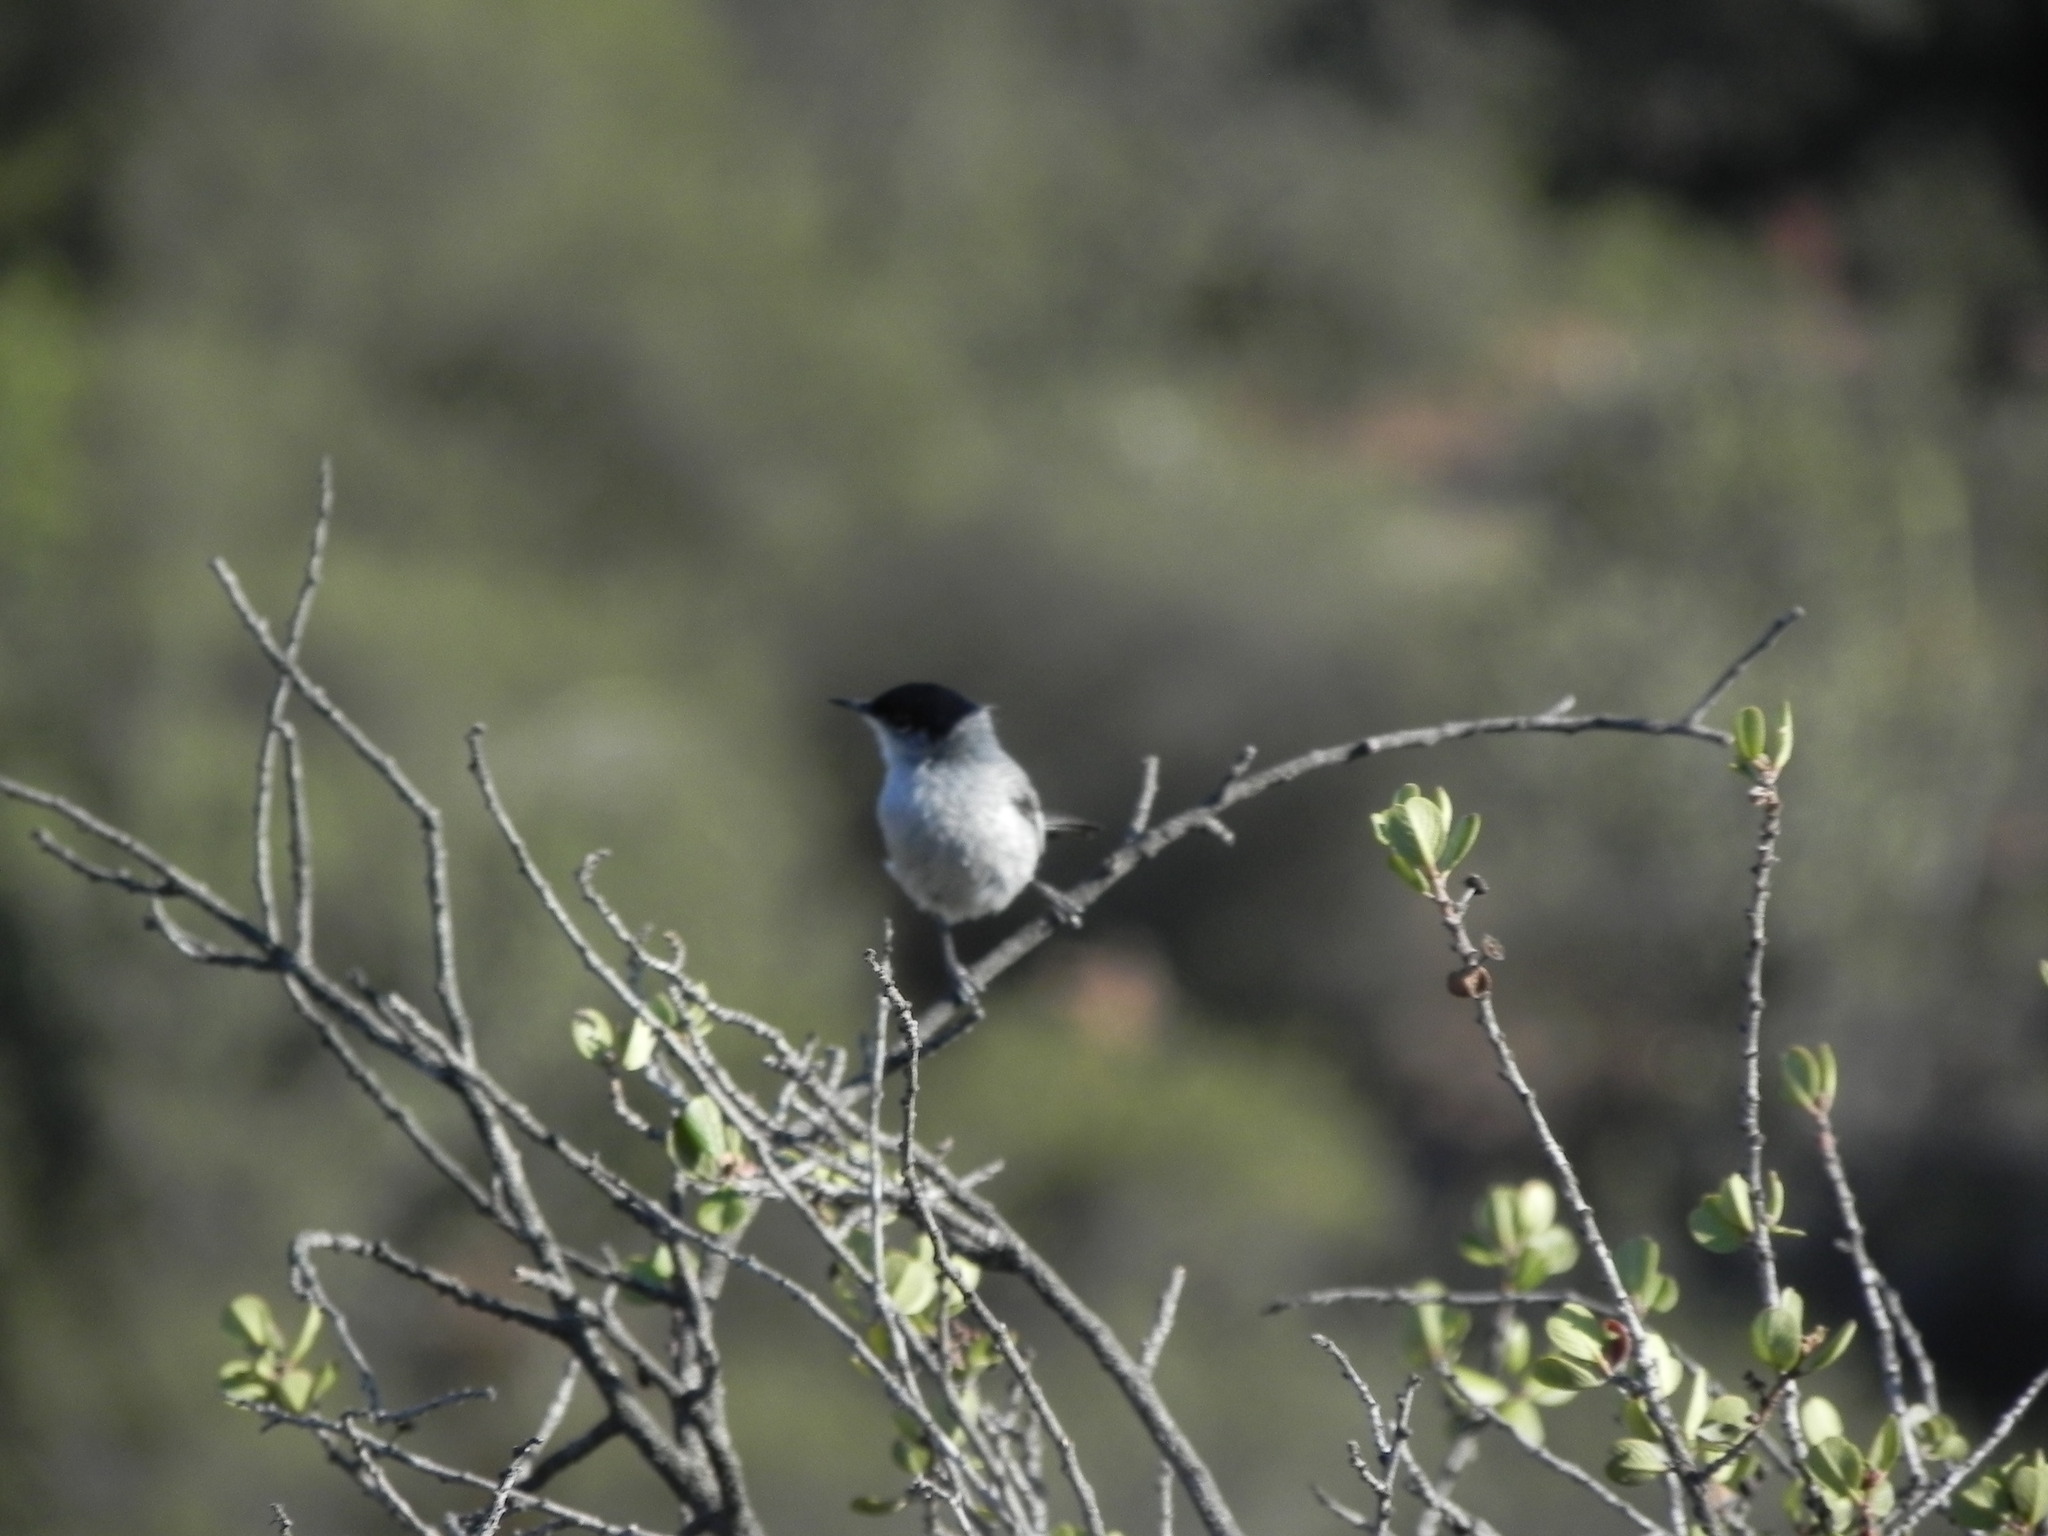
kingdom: Animalia
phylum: Chordata
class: Aves
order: Passeriformes
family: Polioptilidae
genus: Polioptila
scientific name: Polioptila californica
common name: California gnatcatcher
